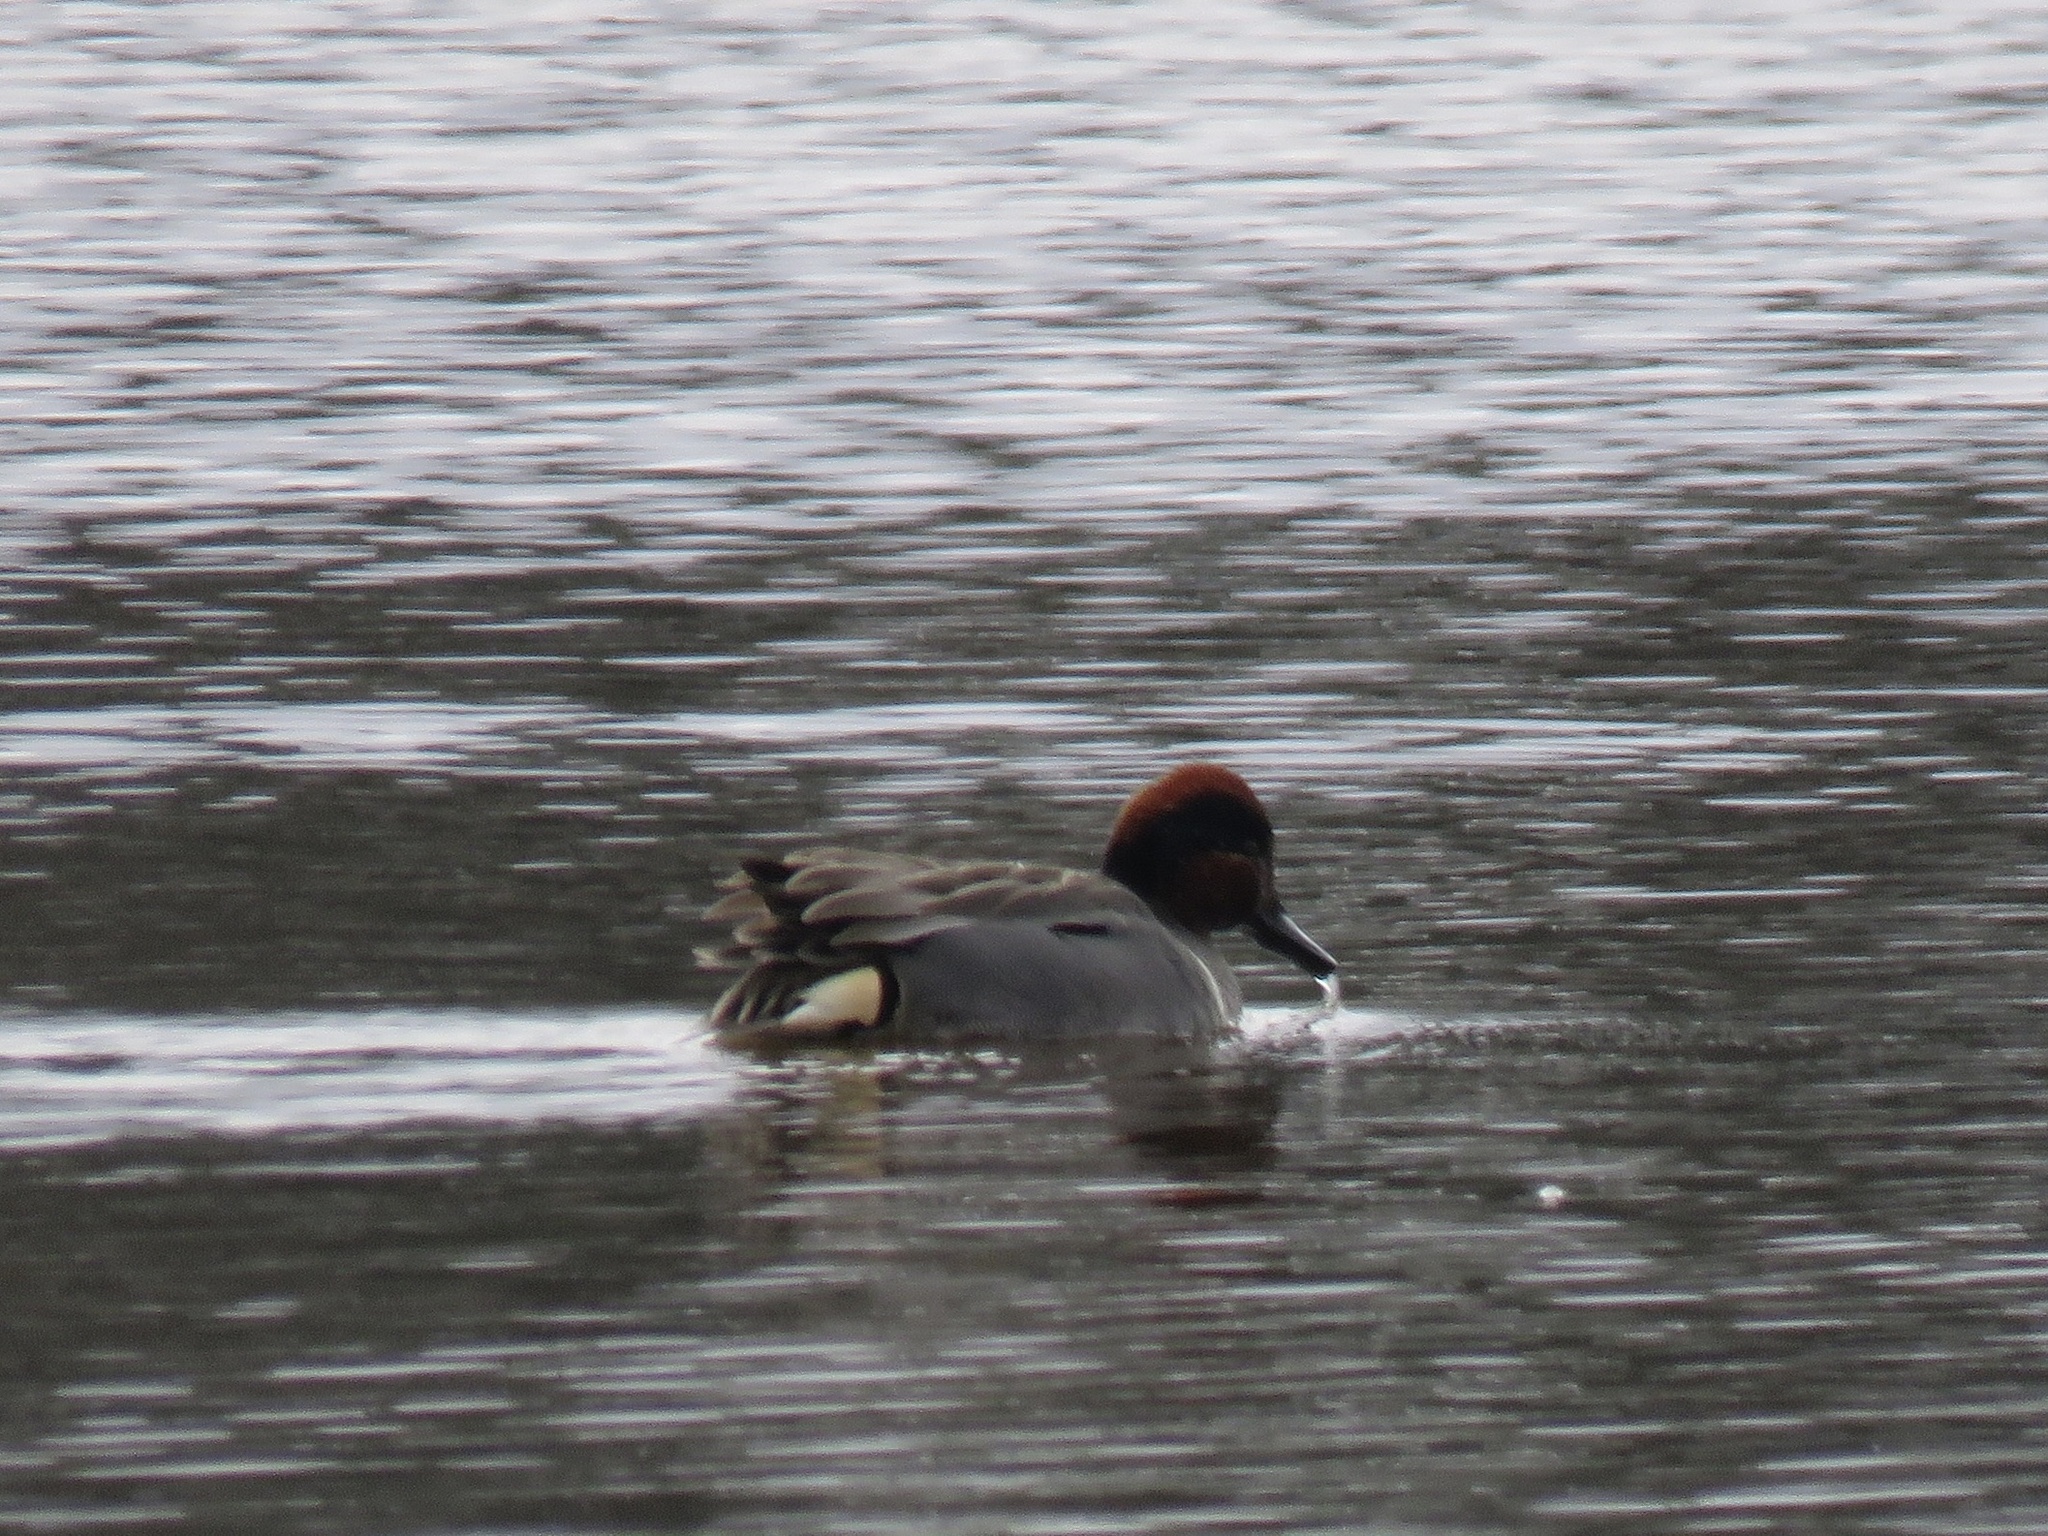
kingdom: Animalia
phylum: Chordata
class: Aves
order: Anseriformes
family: Anatidae
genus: Anas
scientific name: Anas crecca
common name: Eurasian teal
